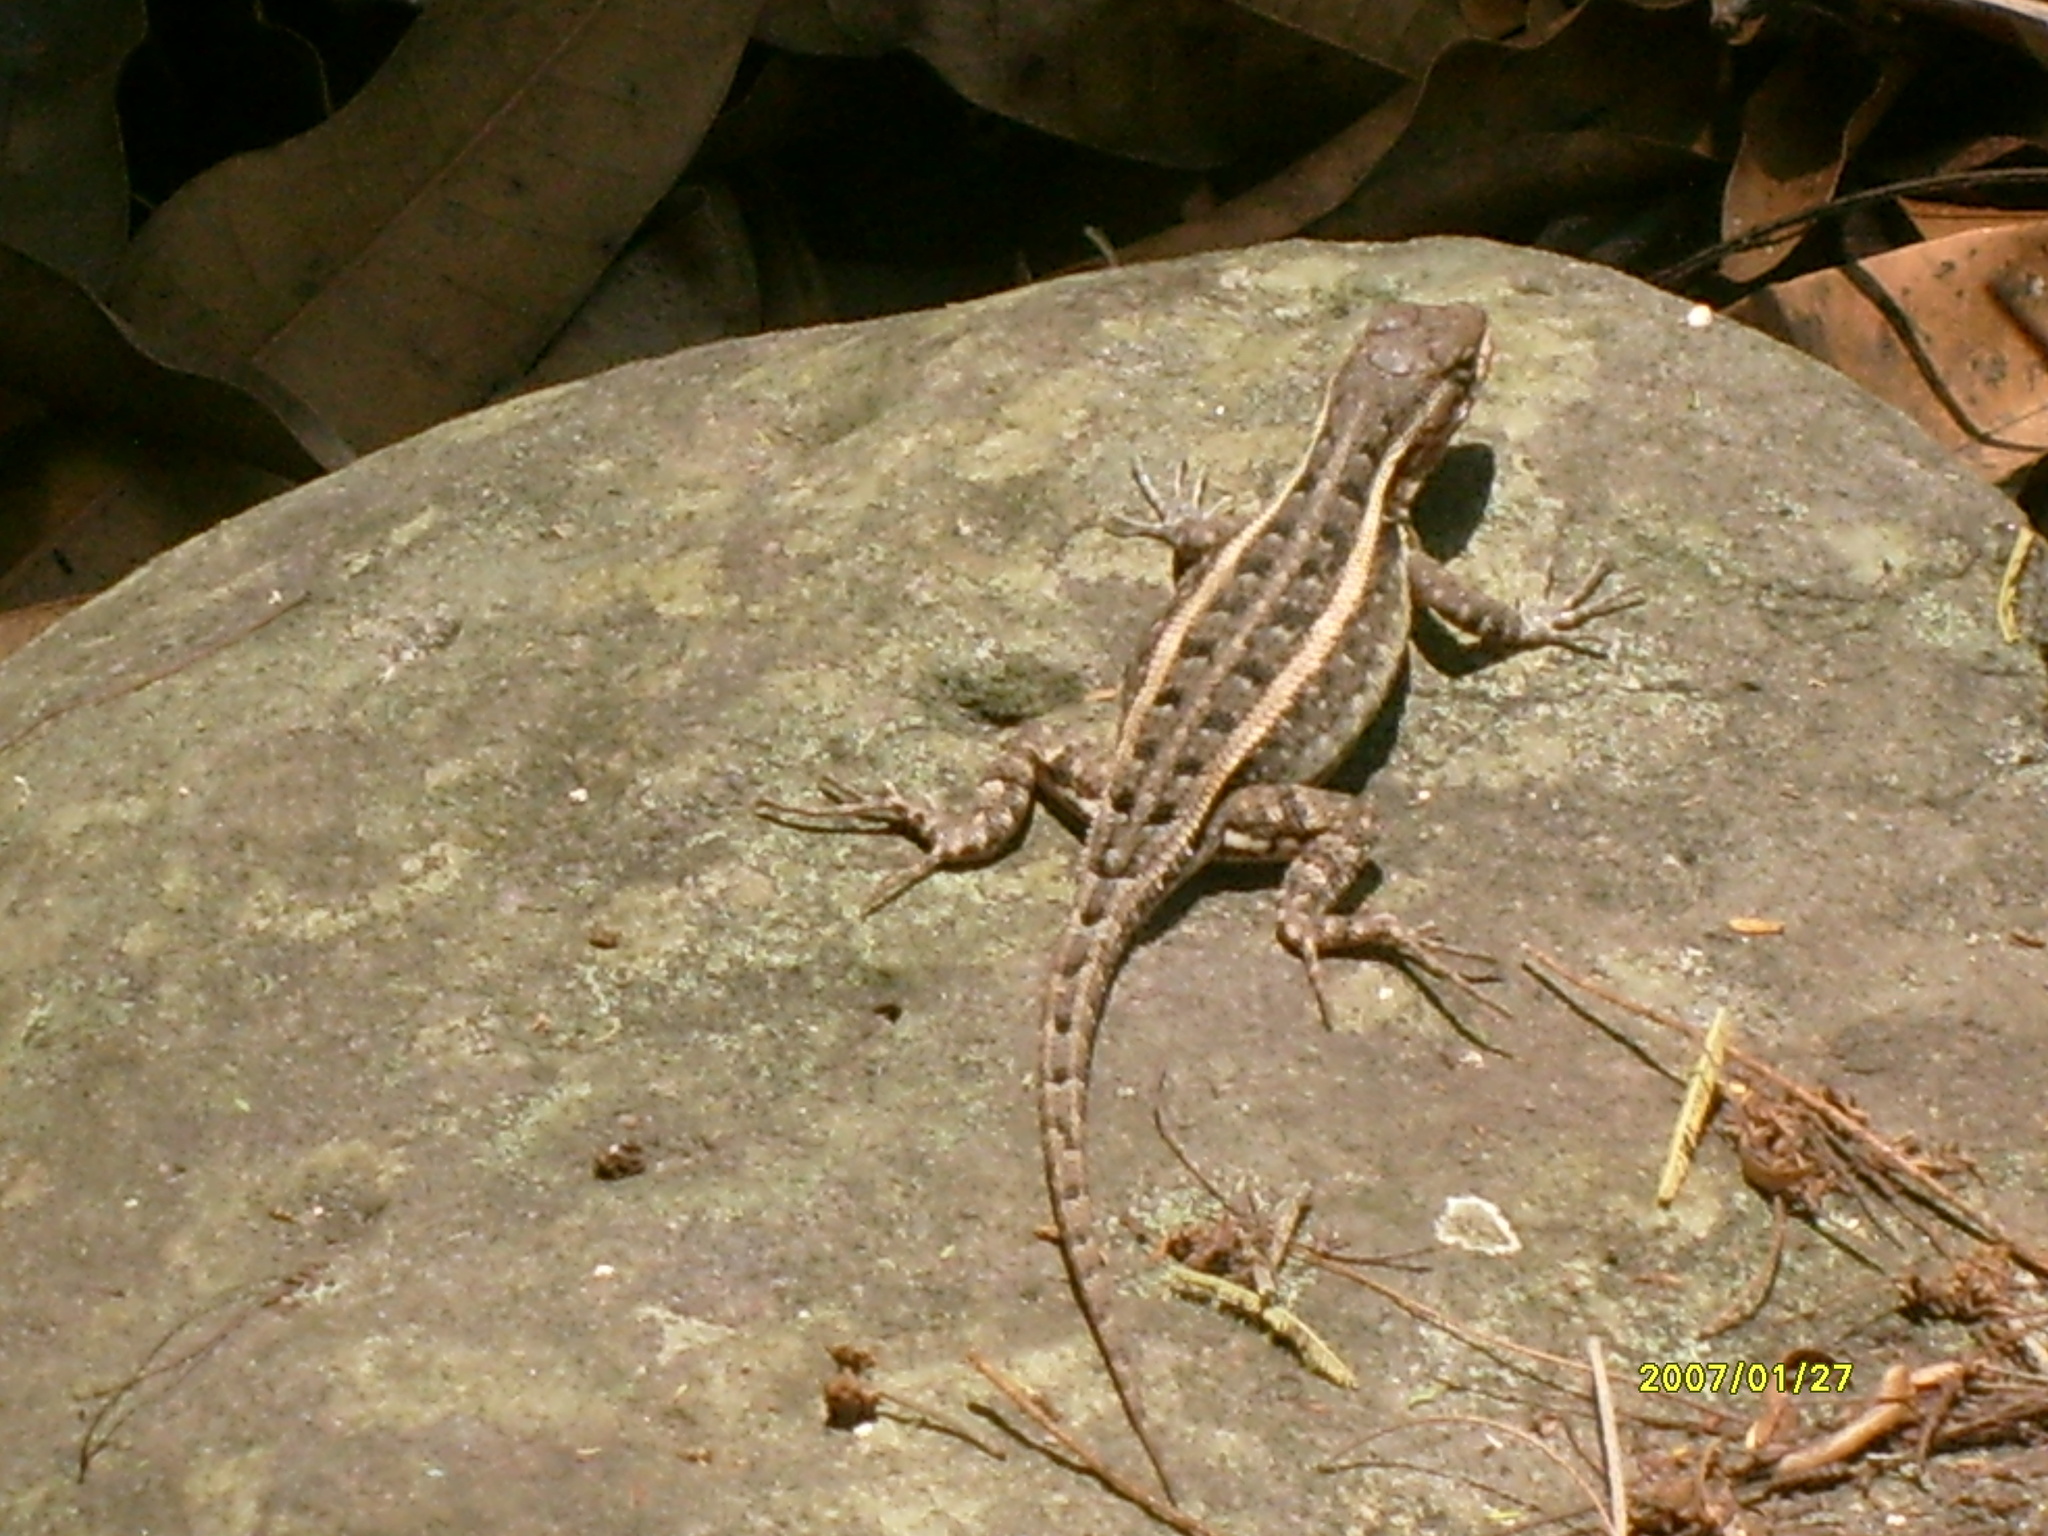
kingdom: Animalia
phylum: Chordata
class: Squamata
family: Phrynosomatidae
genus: Sceloporus
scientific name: Sceloporus variabilis
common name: Rosebelly lizard
